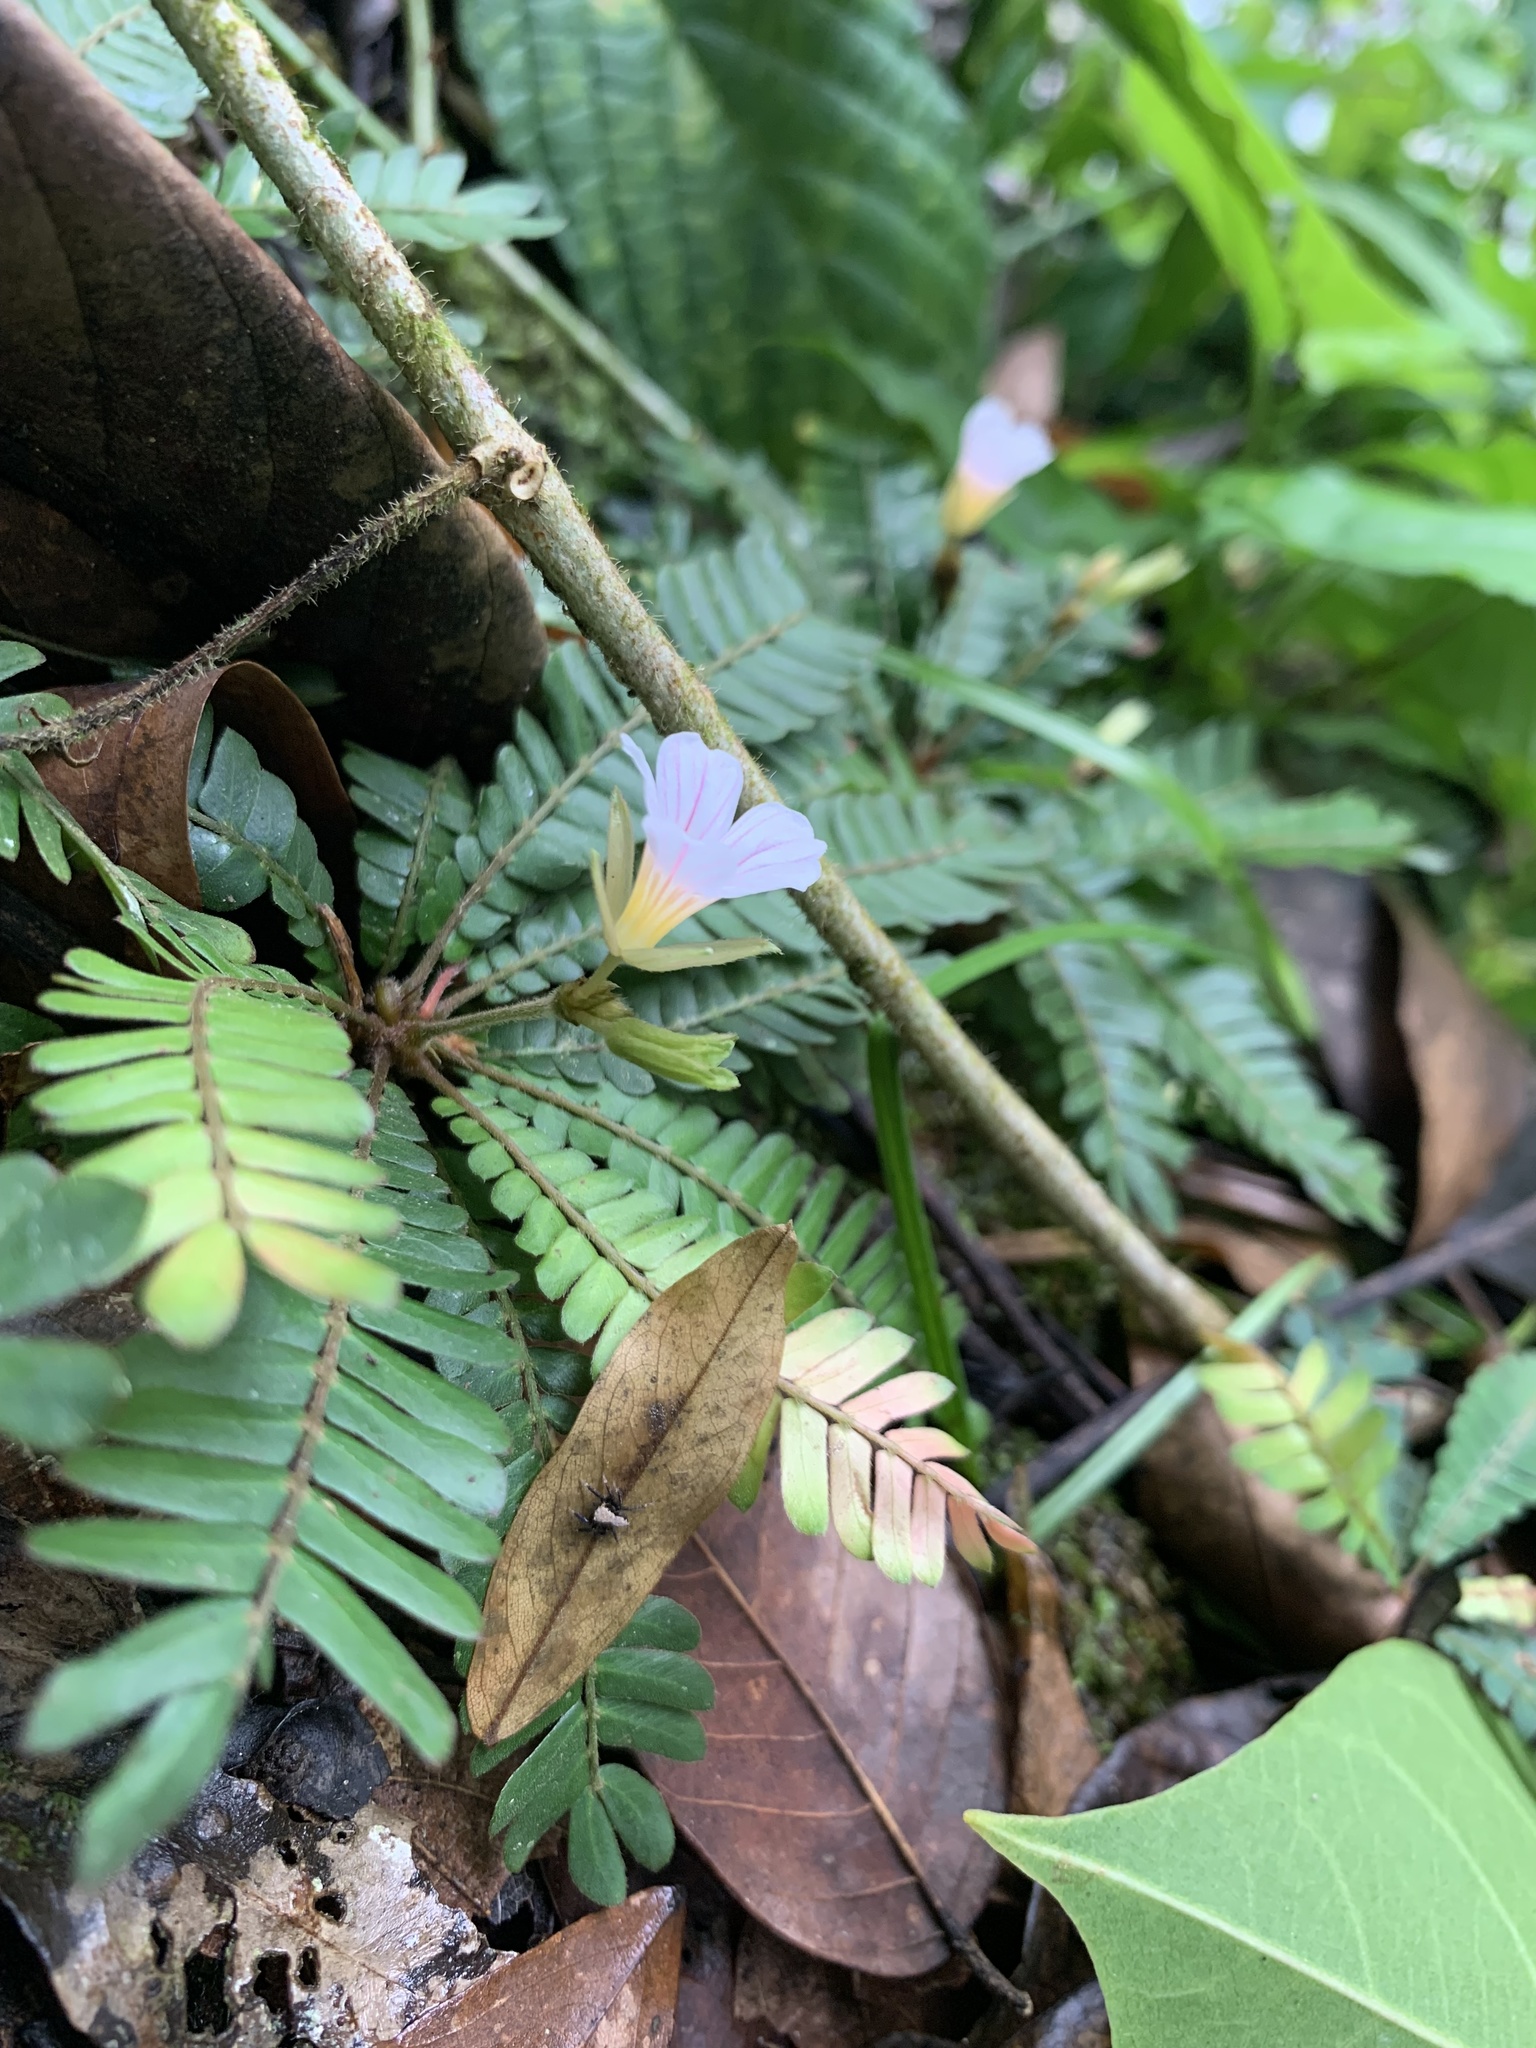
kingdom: Plantae
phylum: Tracheophyta
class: Magnoliopsida
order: Oxalidales
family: Oxalidaceae
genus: Biophytum
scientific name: Biophytum dendroides
